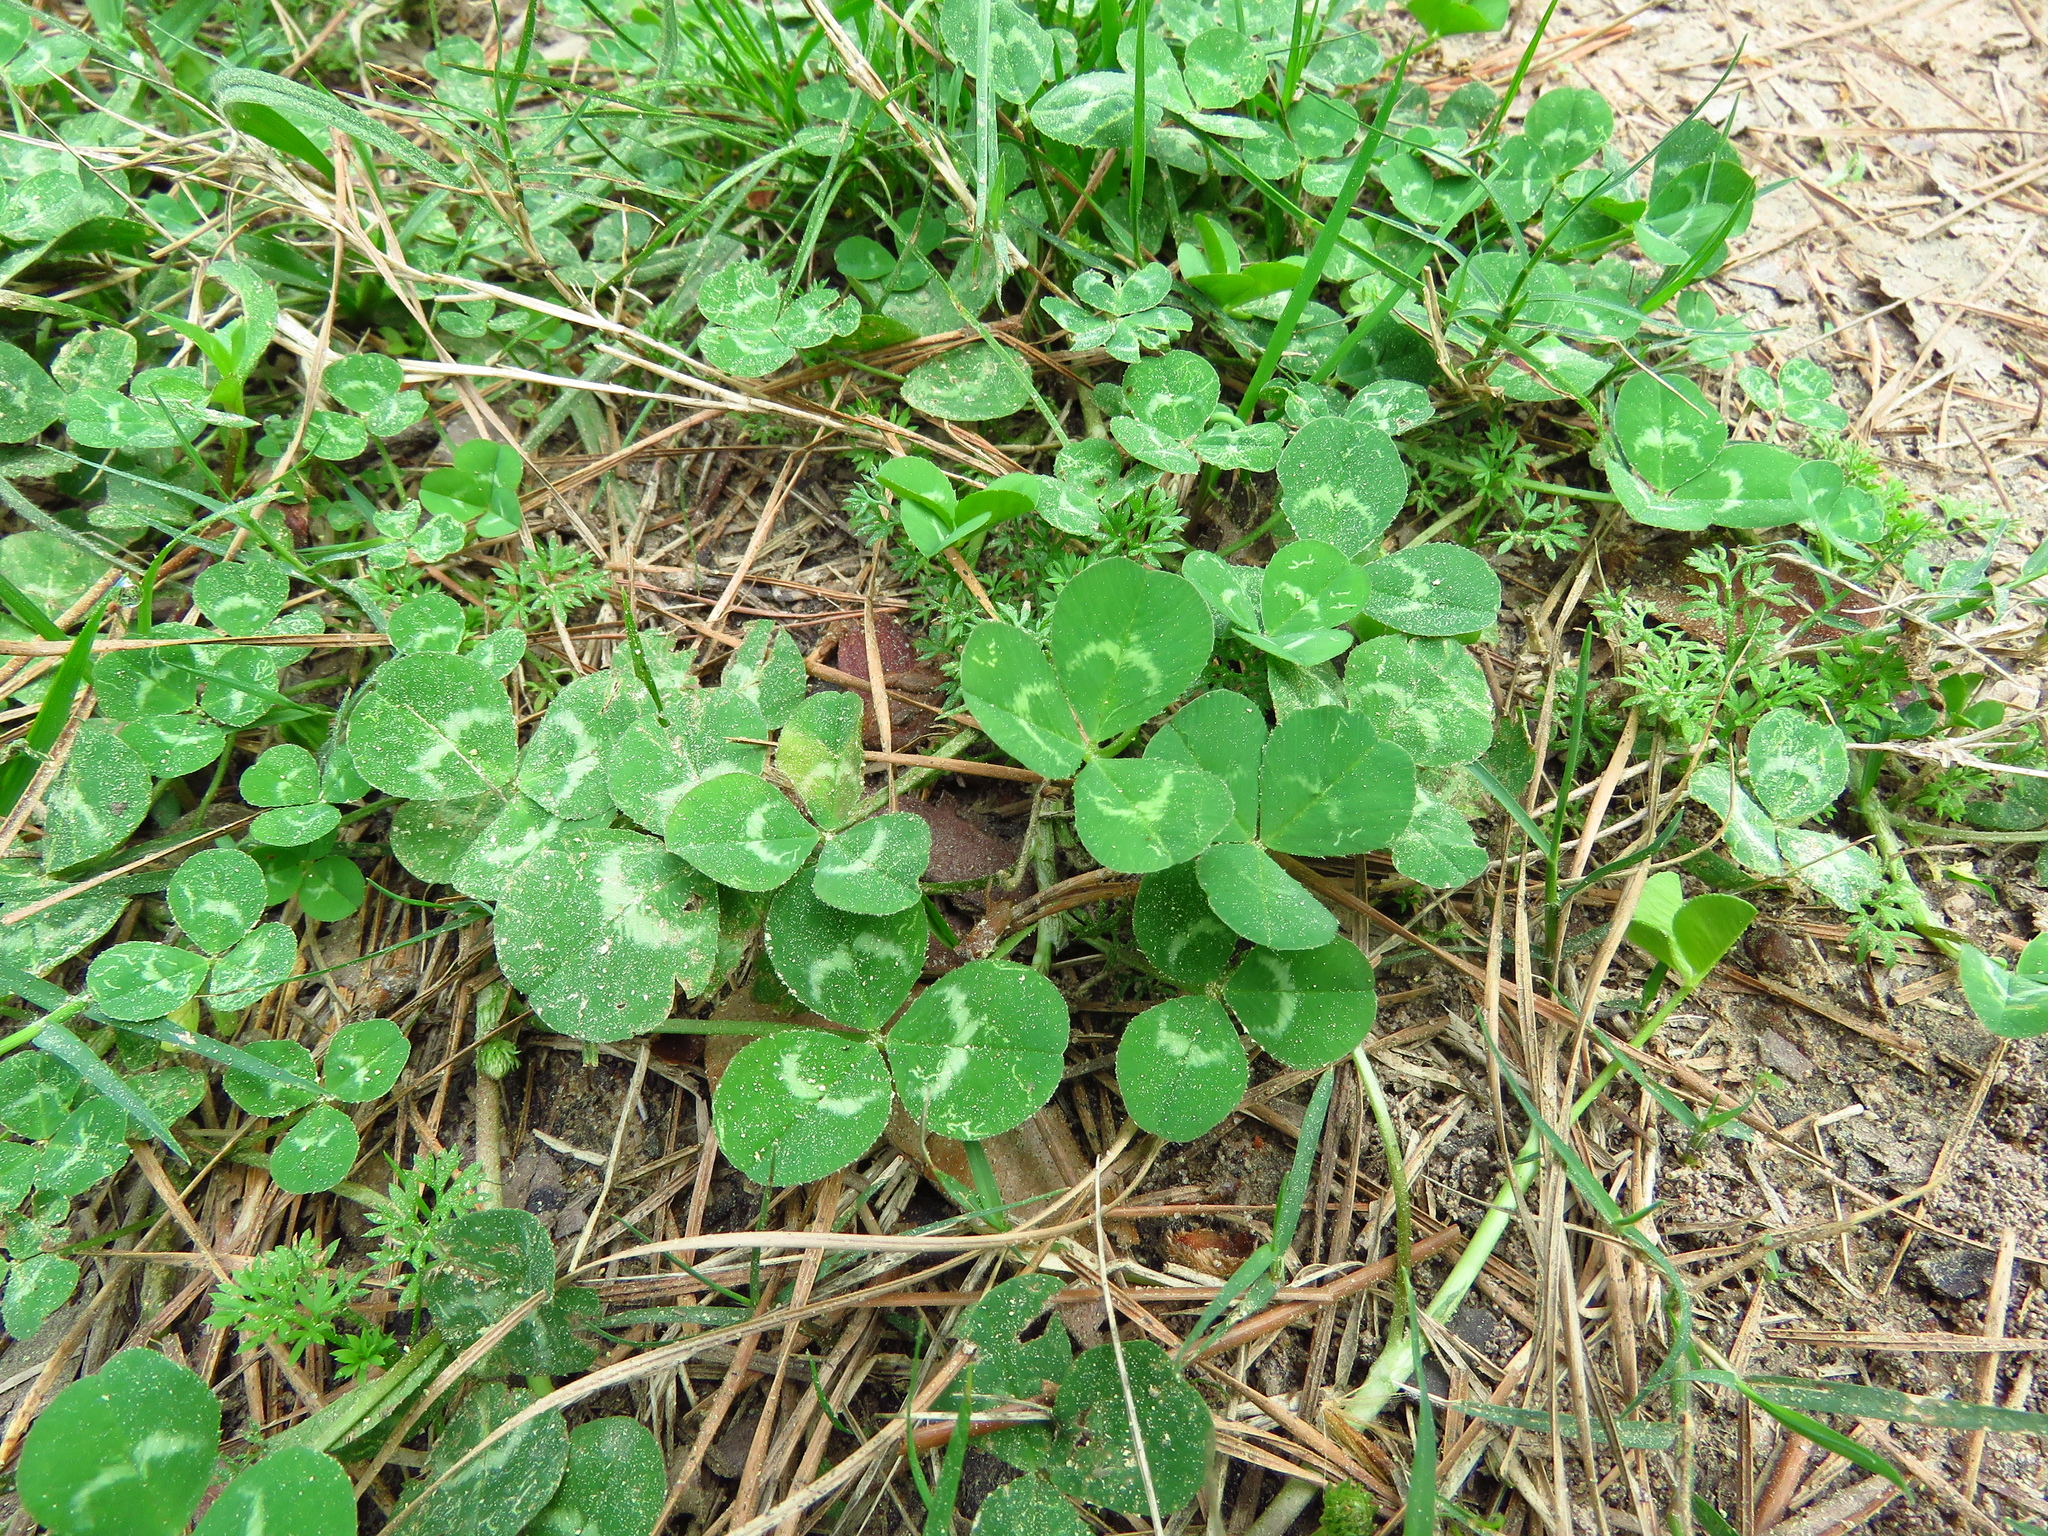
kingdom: Plantae
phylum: Tracheophyta
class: Magnoliopsida
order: Fabales
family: Fabaceae
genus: Trifolium
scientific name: Trifolium repens
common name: White clover
